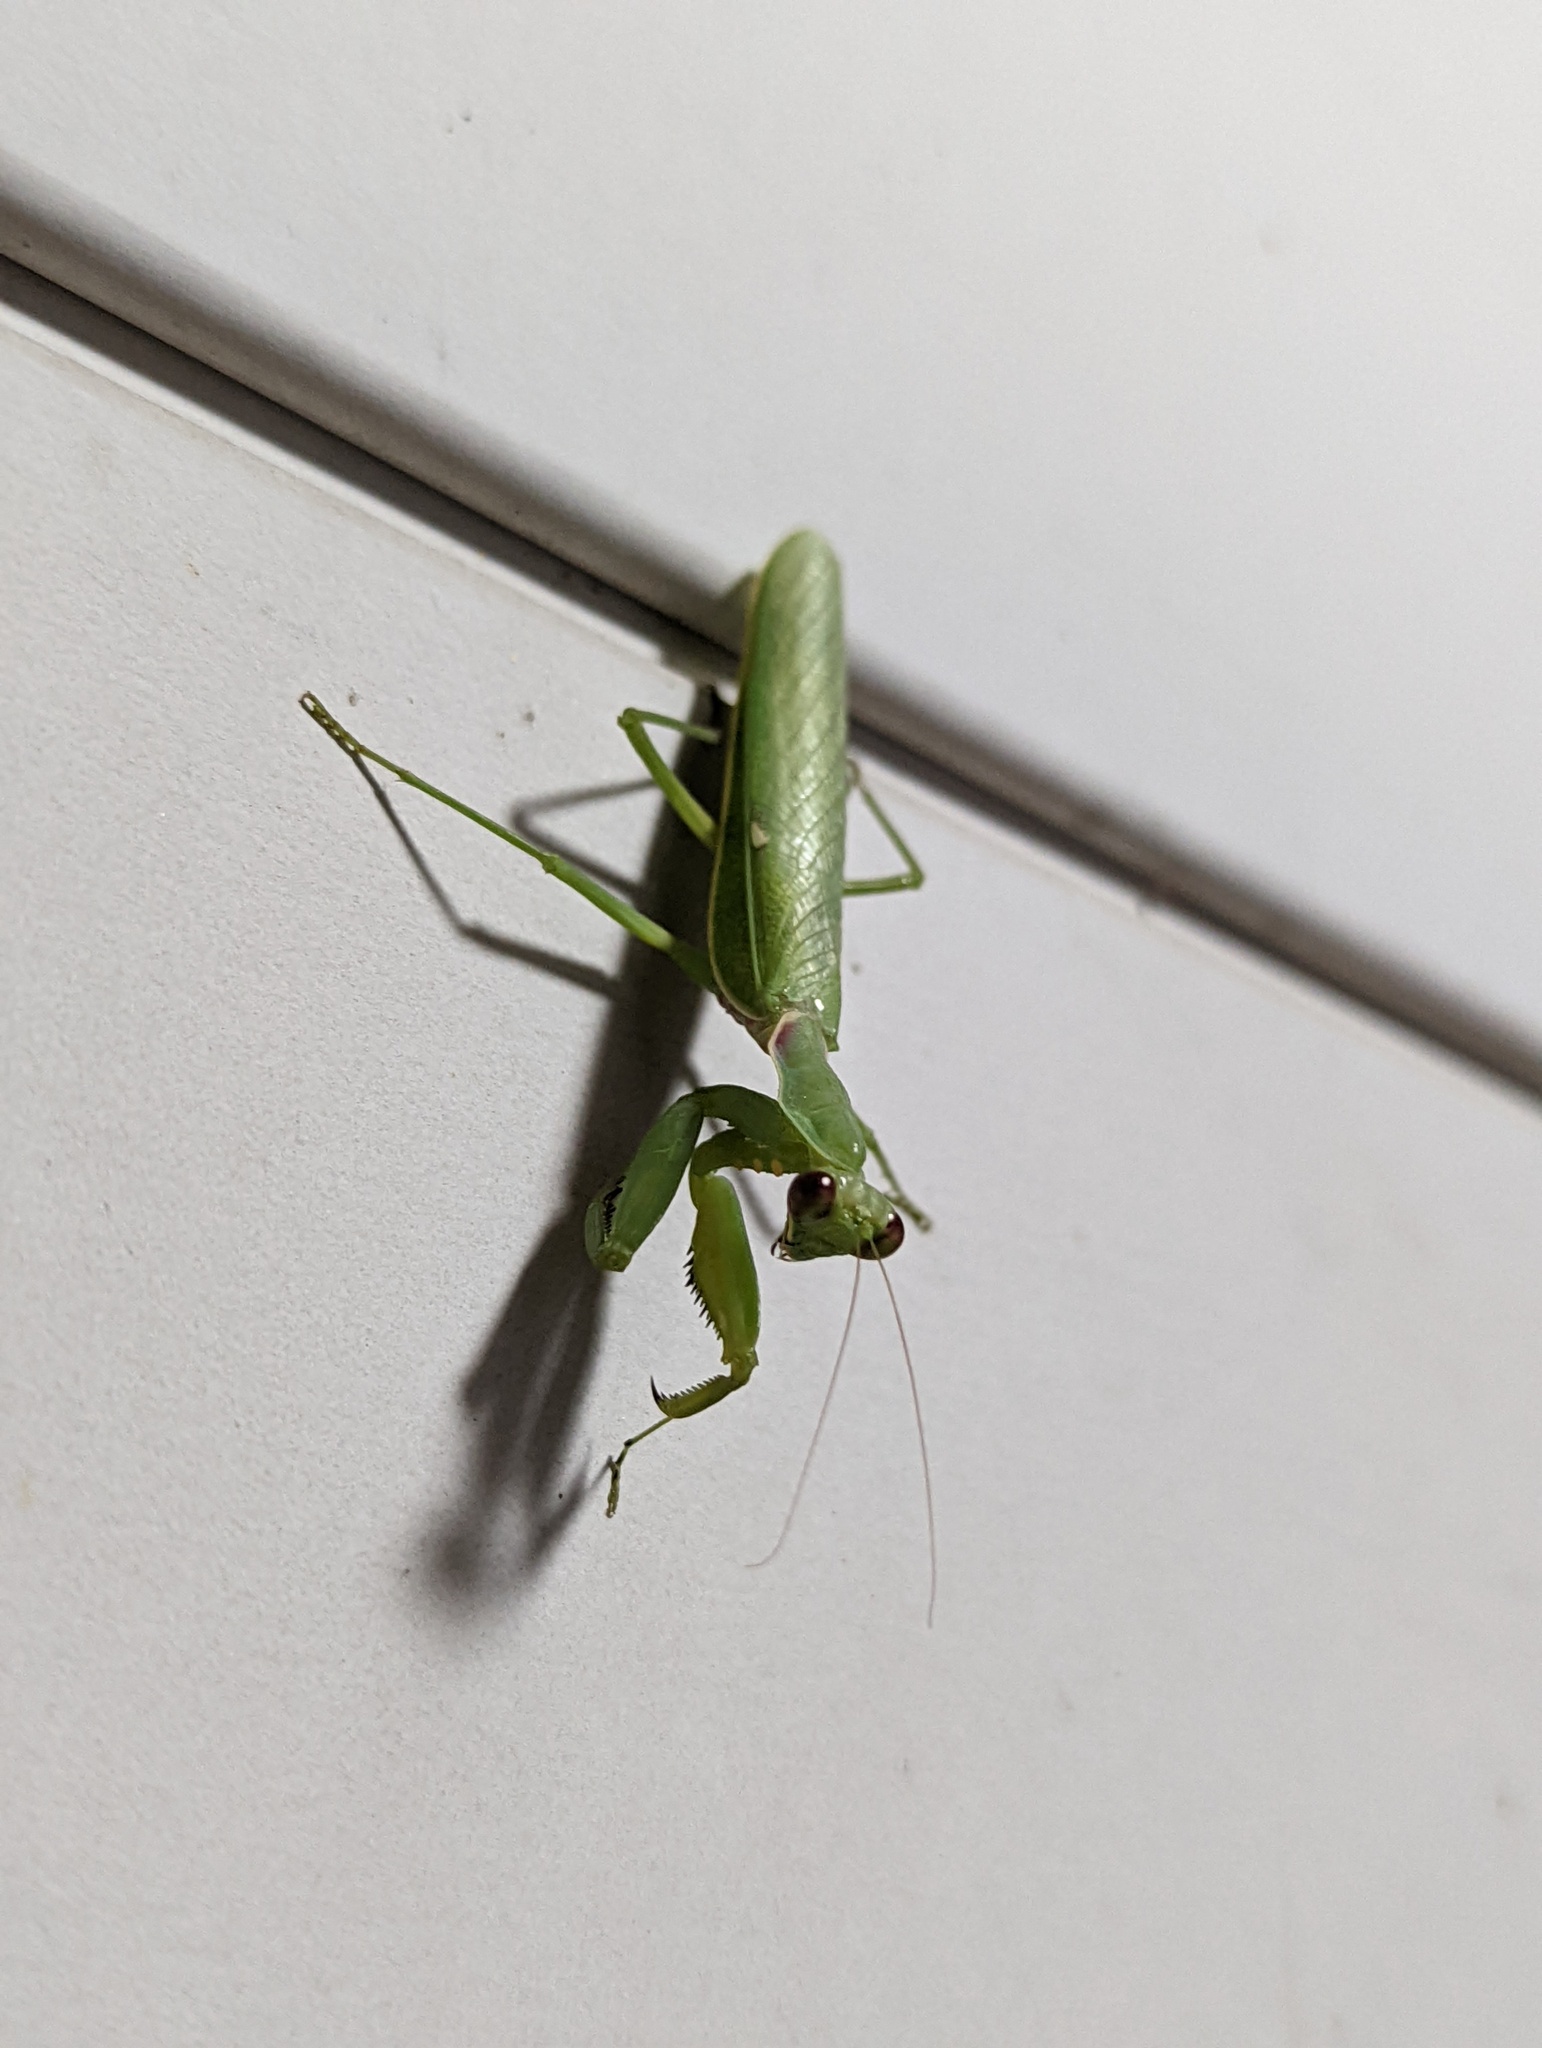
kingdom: Animalia
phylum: Arthropoda
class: Insecta
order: Mantodea
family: Mantidae
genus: Hierodula
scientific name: Hierodula patellifera
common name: Asian mantis
